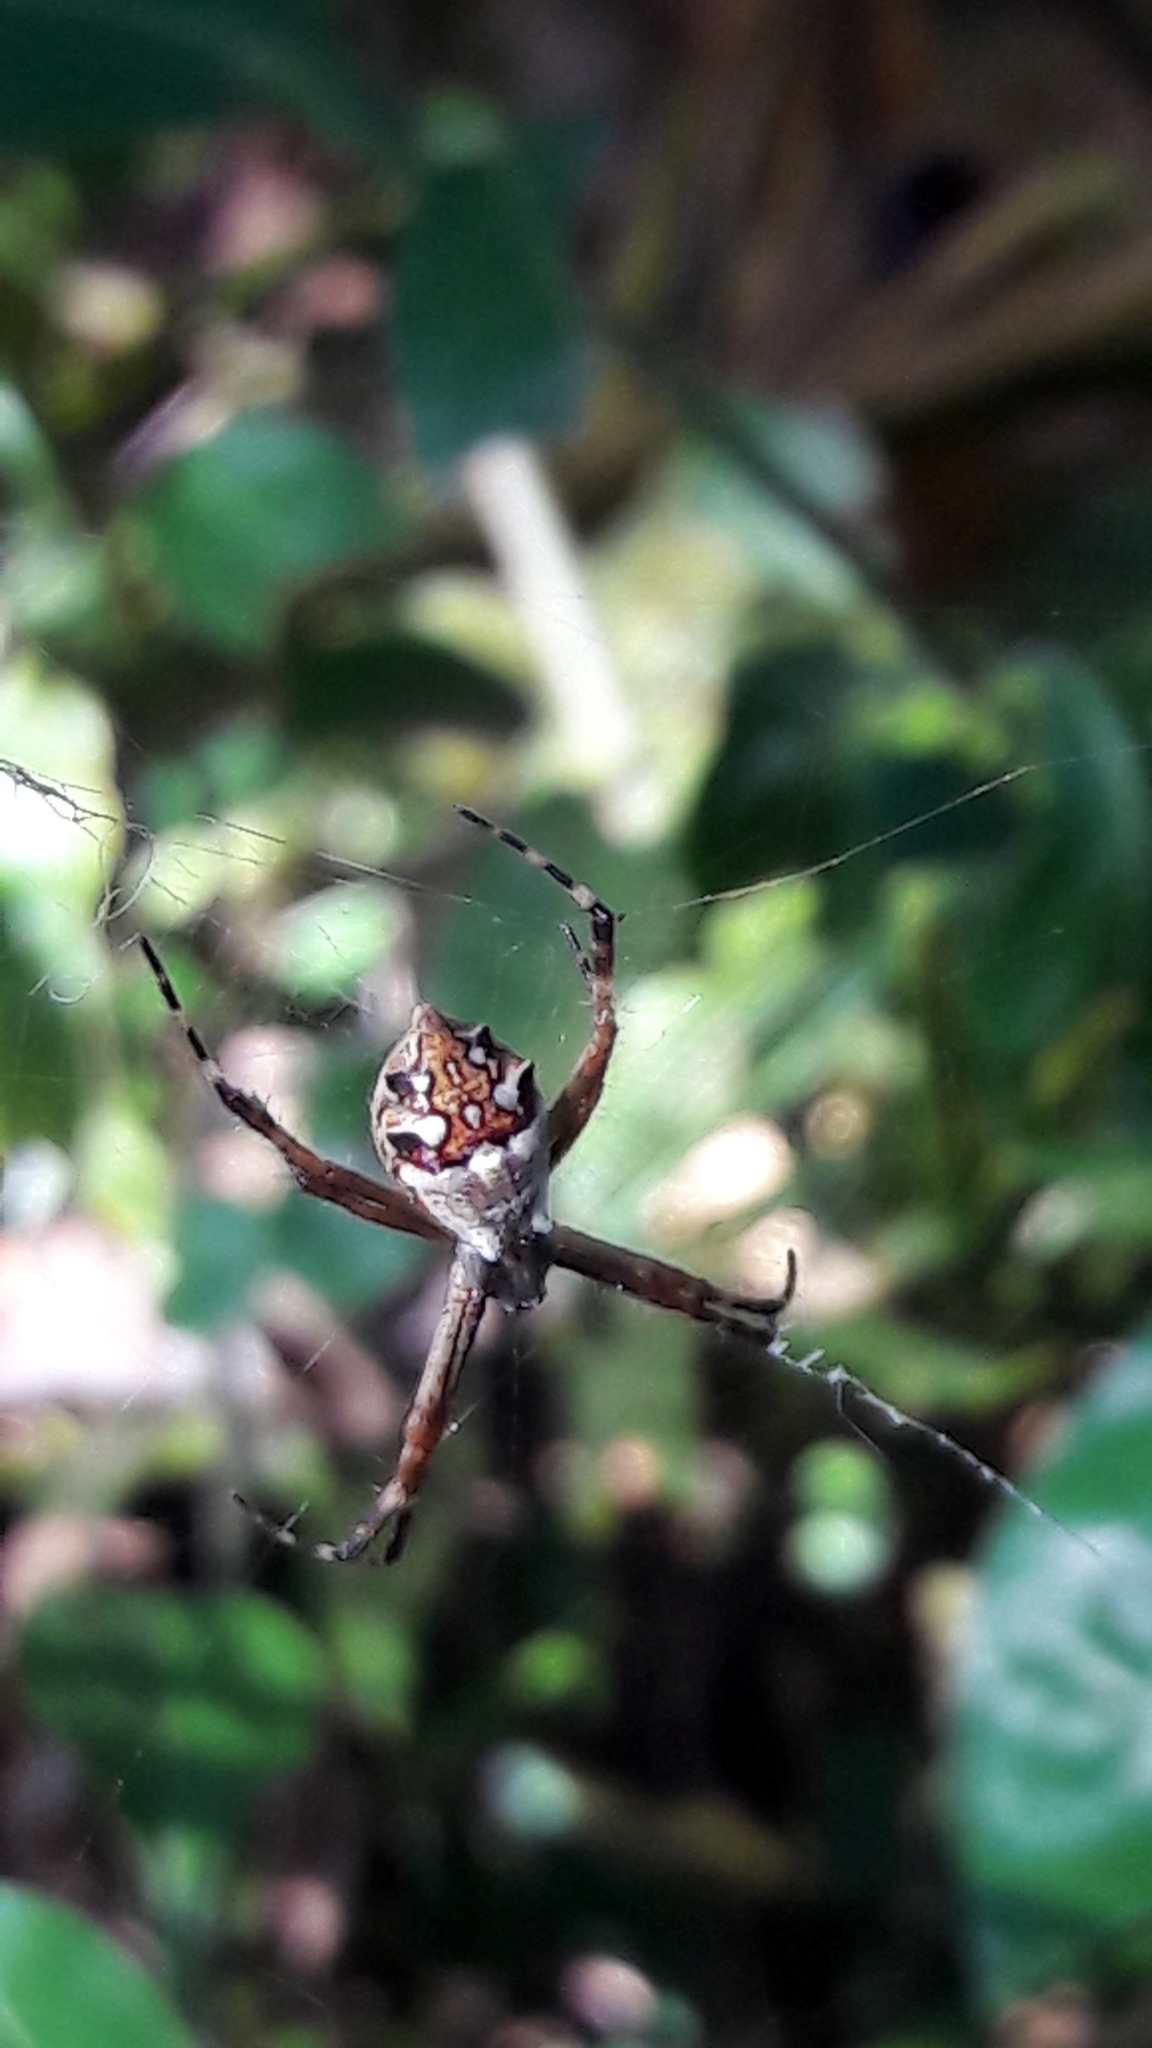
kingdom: Animalia
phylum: Arthropoda
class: Arachnida
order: Araneae
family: Araneidae
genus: Argiope
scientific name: Argiope argentata
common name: Orb weavers
